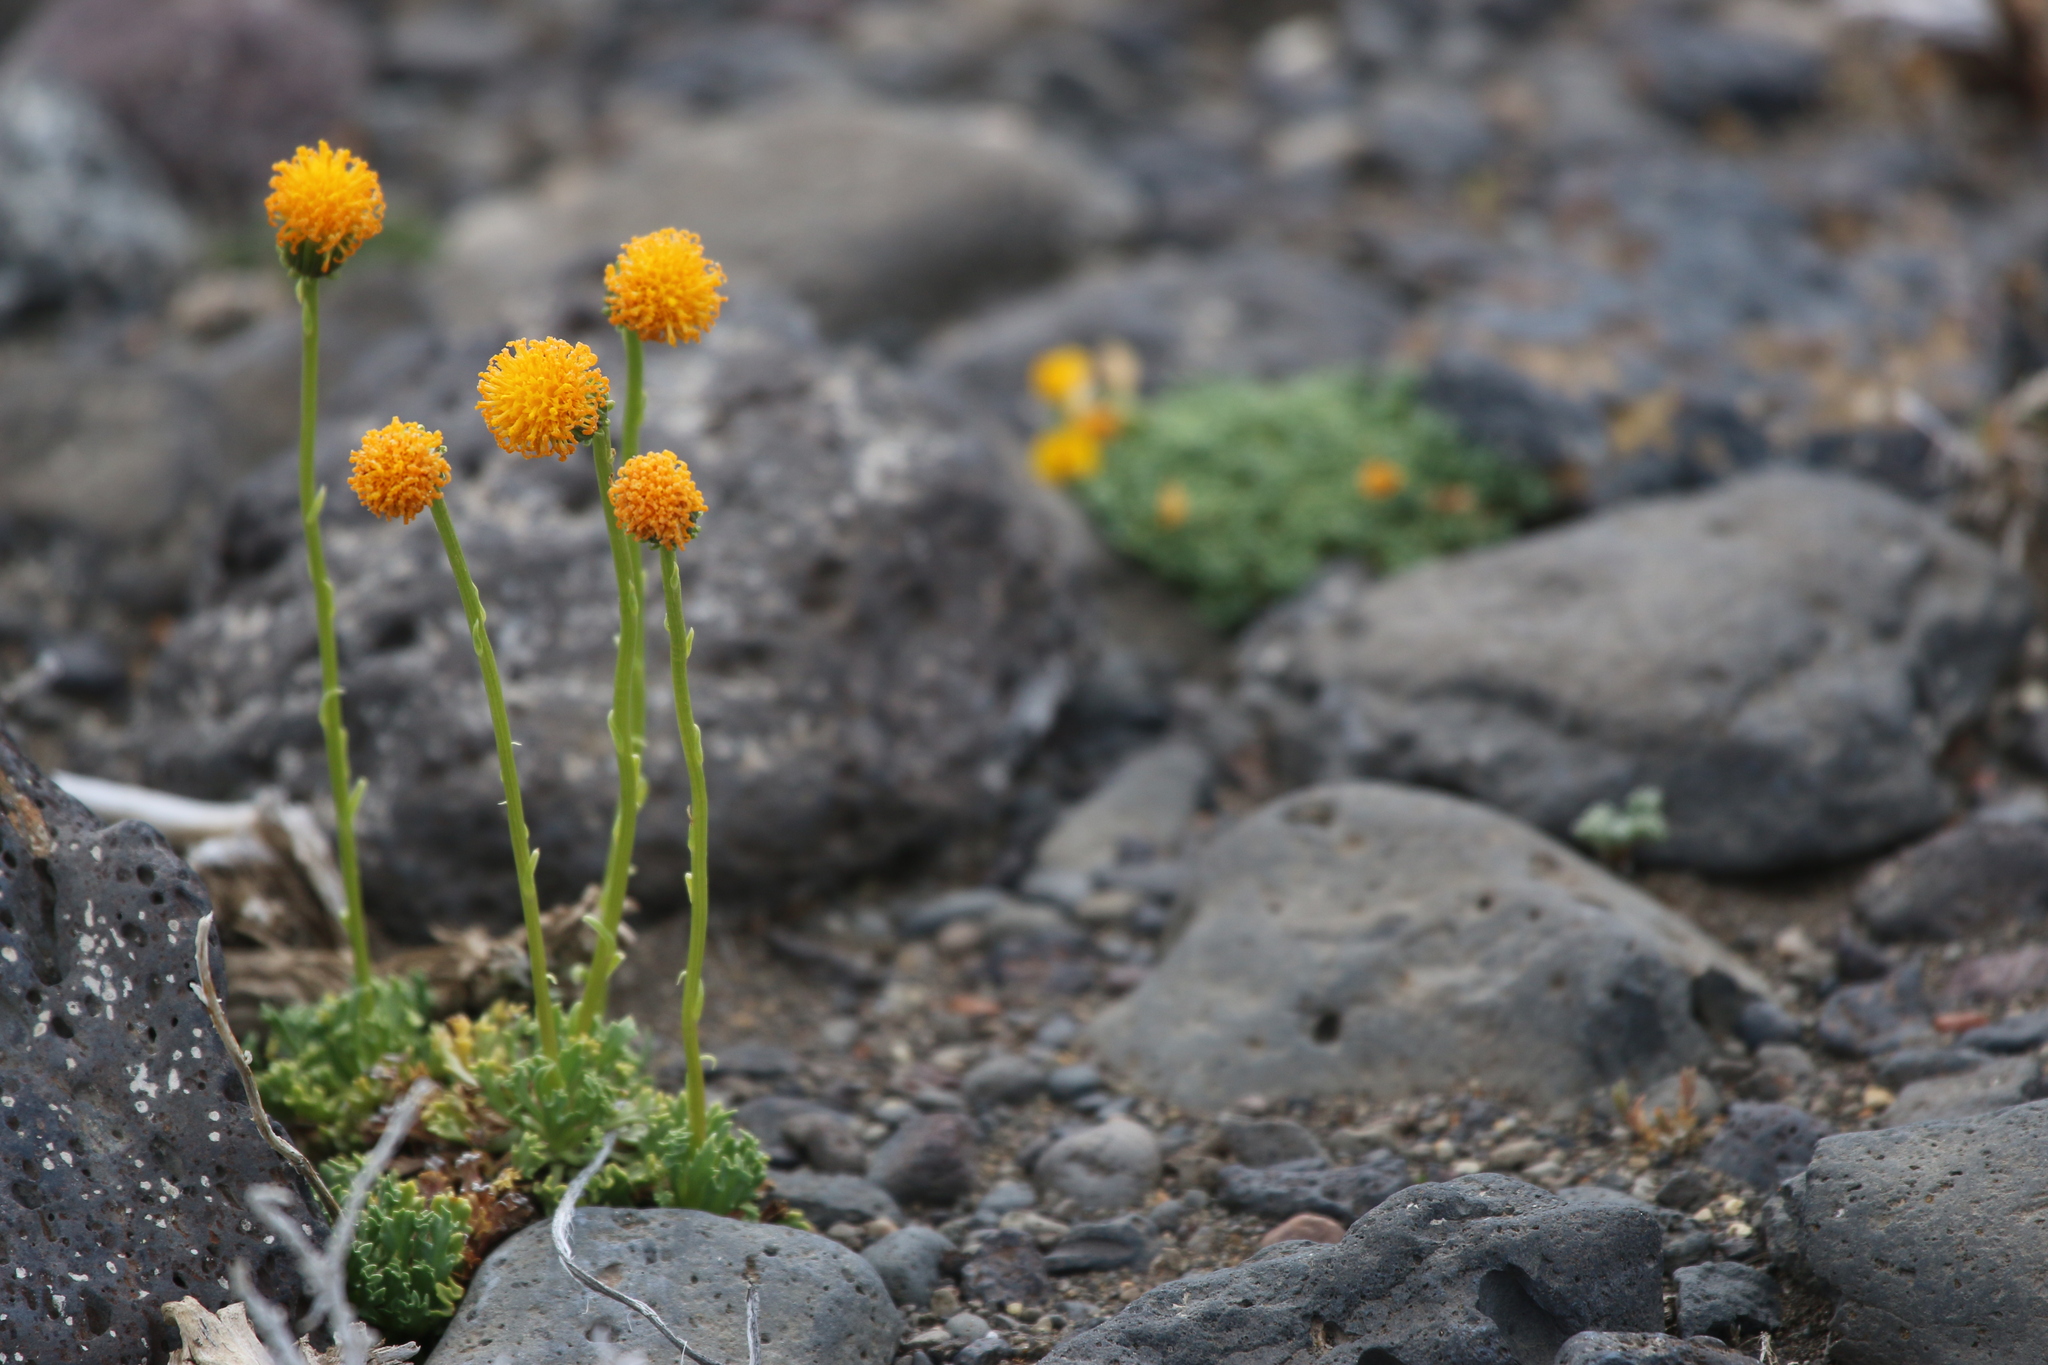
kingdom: Plantae
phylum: Tracheophyta
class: Magnoliopsida
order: Asterales
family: Asteraceae
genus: Senecio
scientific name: Senecio kingii
